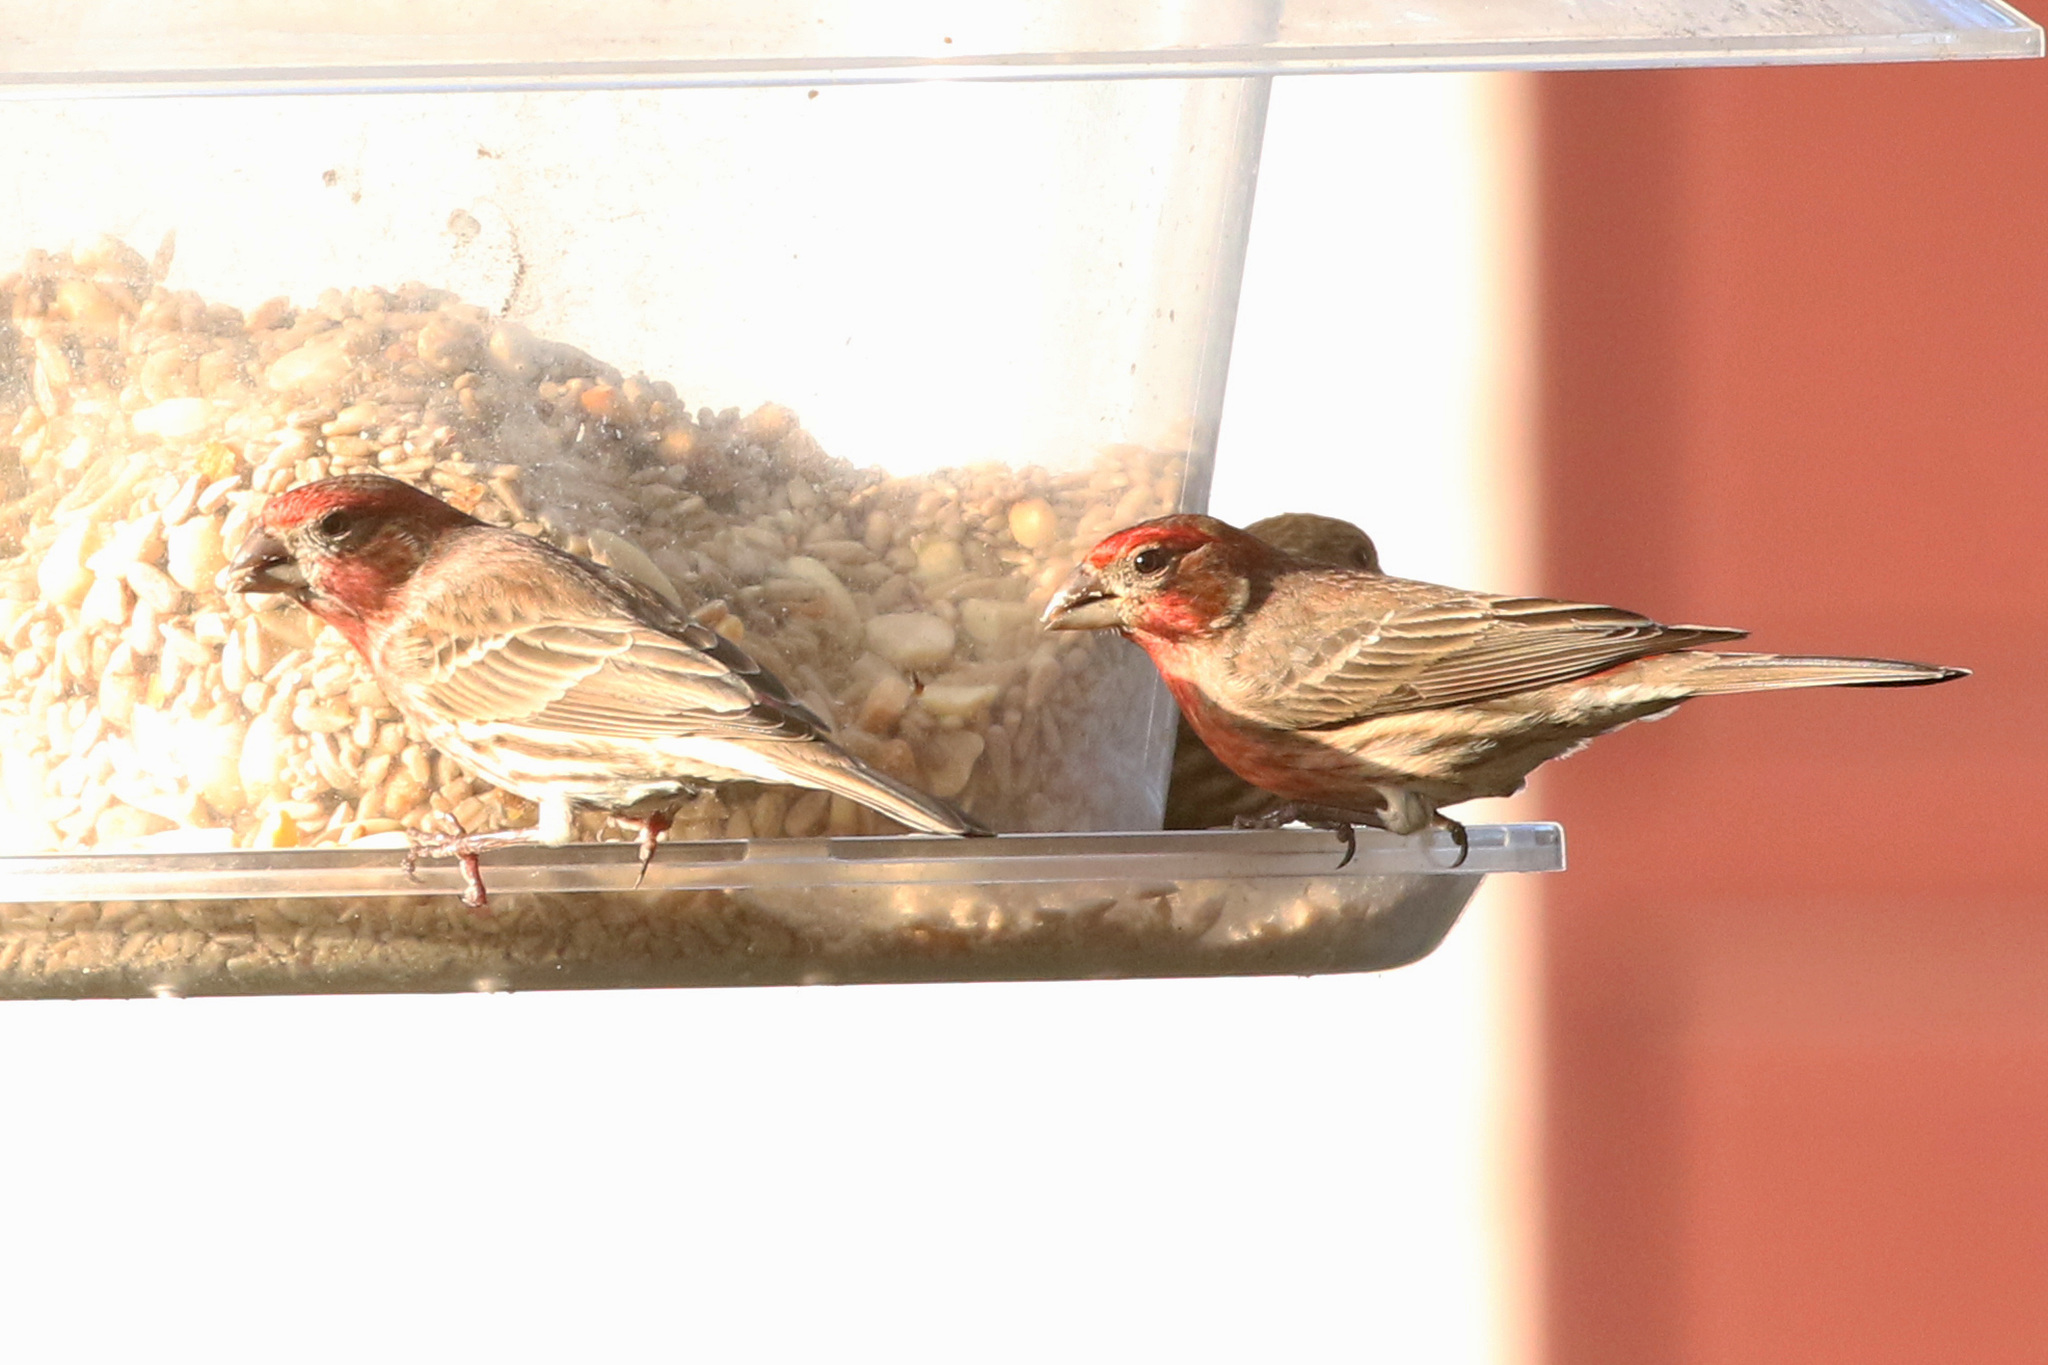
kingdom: Animalia
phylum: Chordata
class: Aves
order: Passeriformes
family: Fringillidae
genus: Haemorhous
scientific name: Haemorhous mexicanus
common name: House finch
